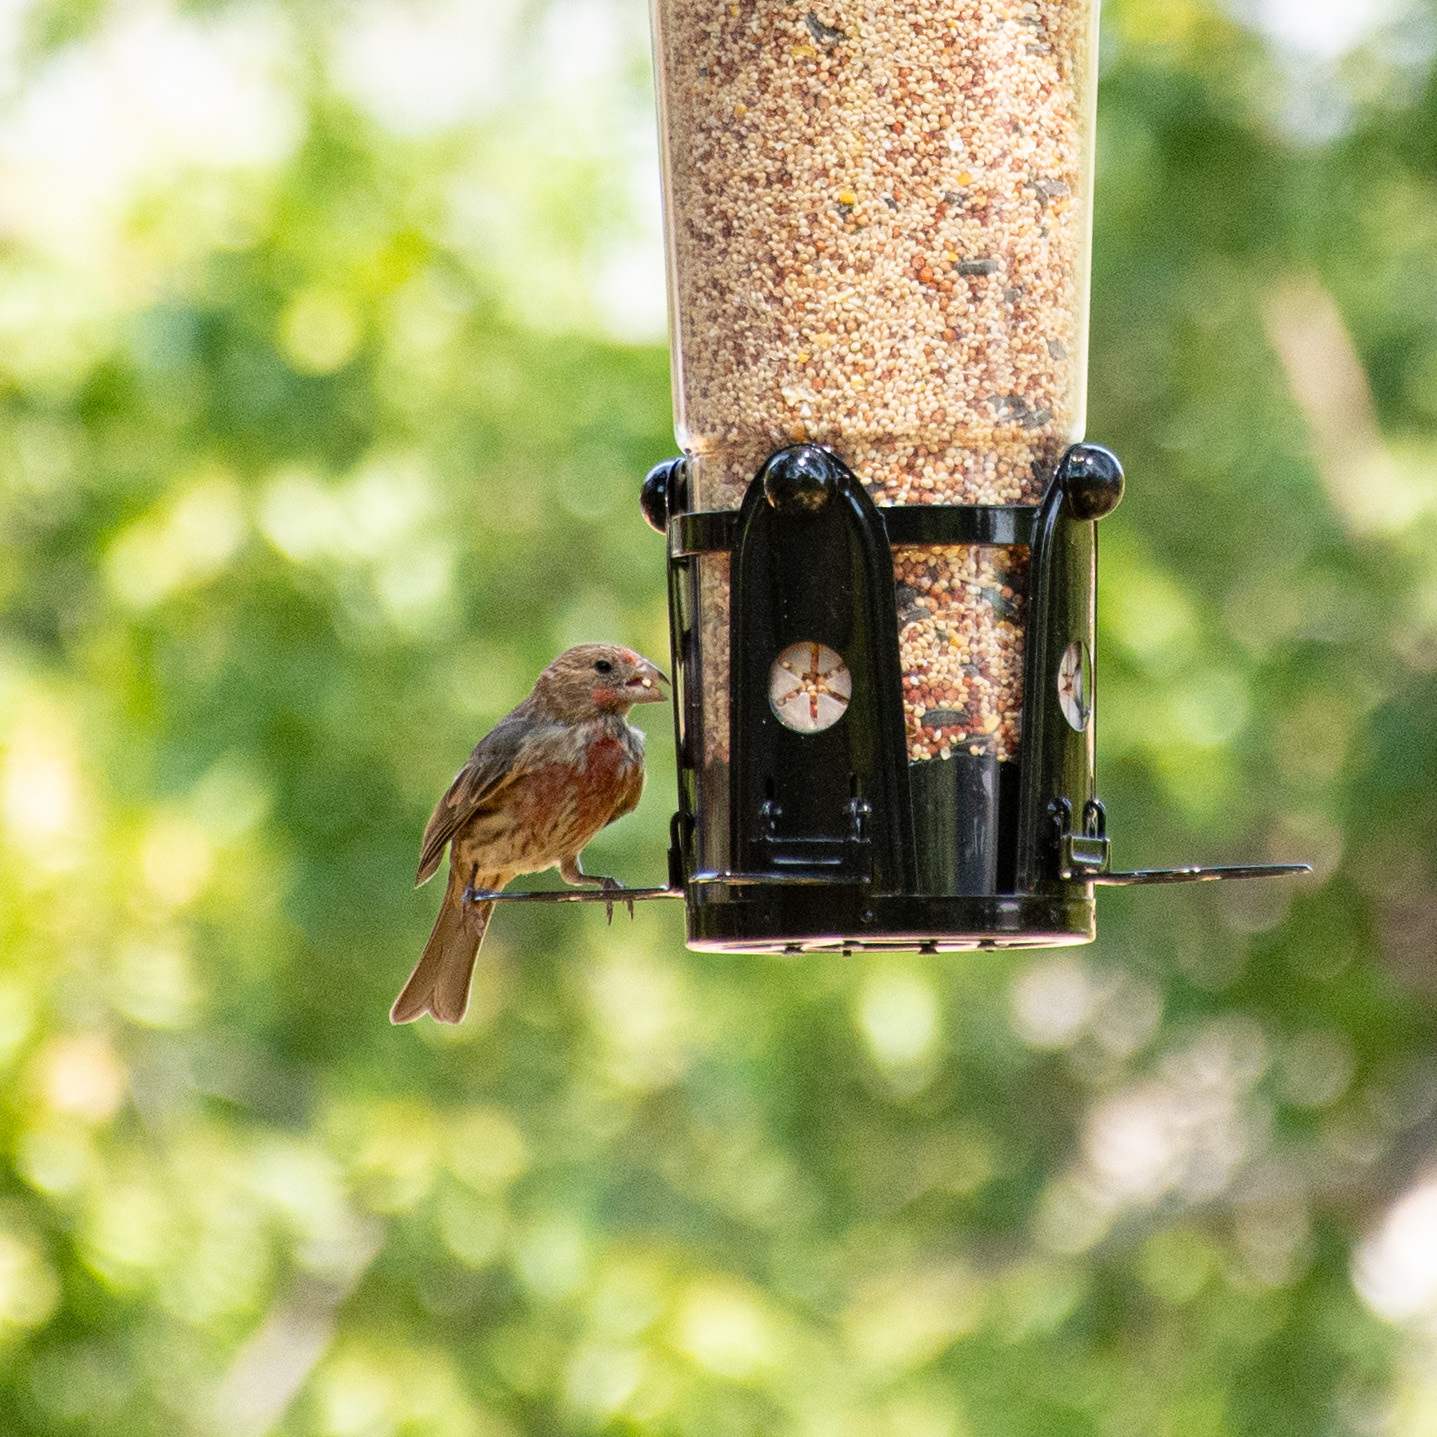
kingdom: Animalia
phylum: Chordata
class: Aves
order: Passeriformes
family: Fringillidae
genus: Haemorhous
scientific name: Haemorhous mexicanus
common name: House finch
